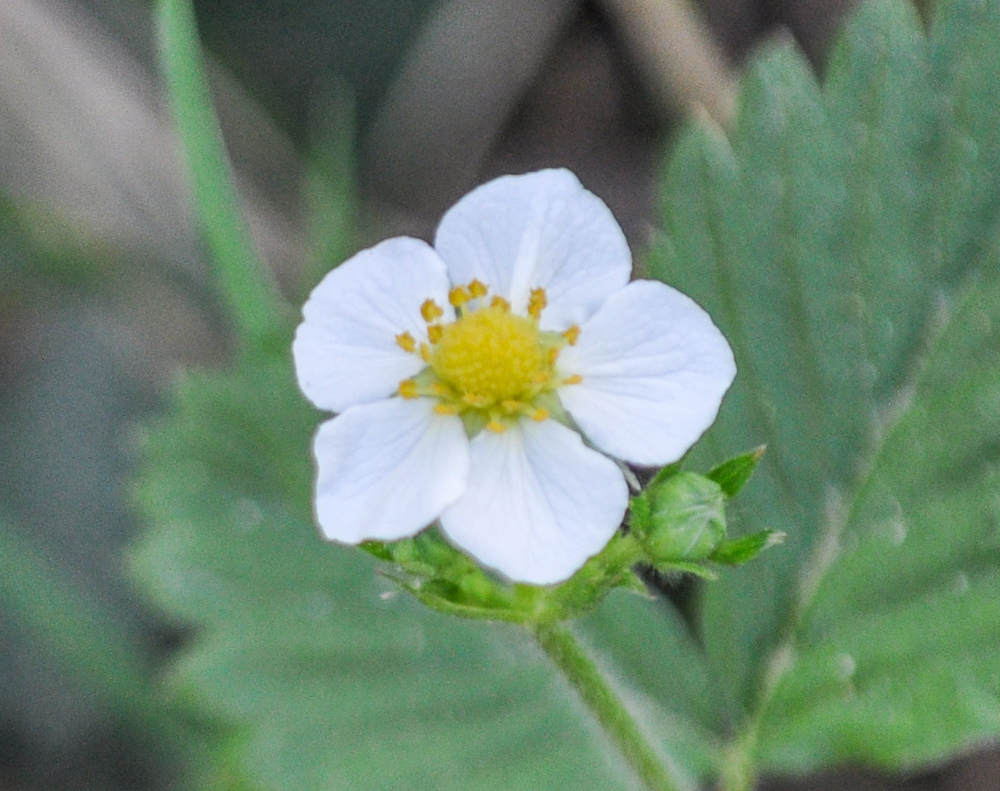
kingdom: Plantae
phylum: Tracheophyta
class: Magnoliopsida
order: Rosales
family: Rosaceae
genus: Fragaria
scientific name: Fragaria vesca
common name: Wild strawberry
